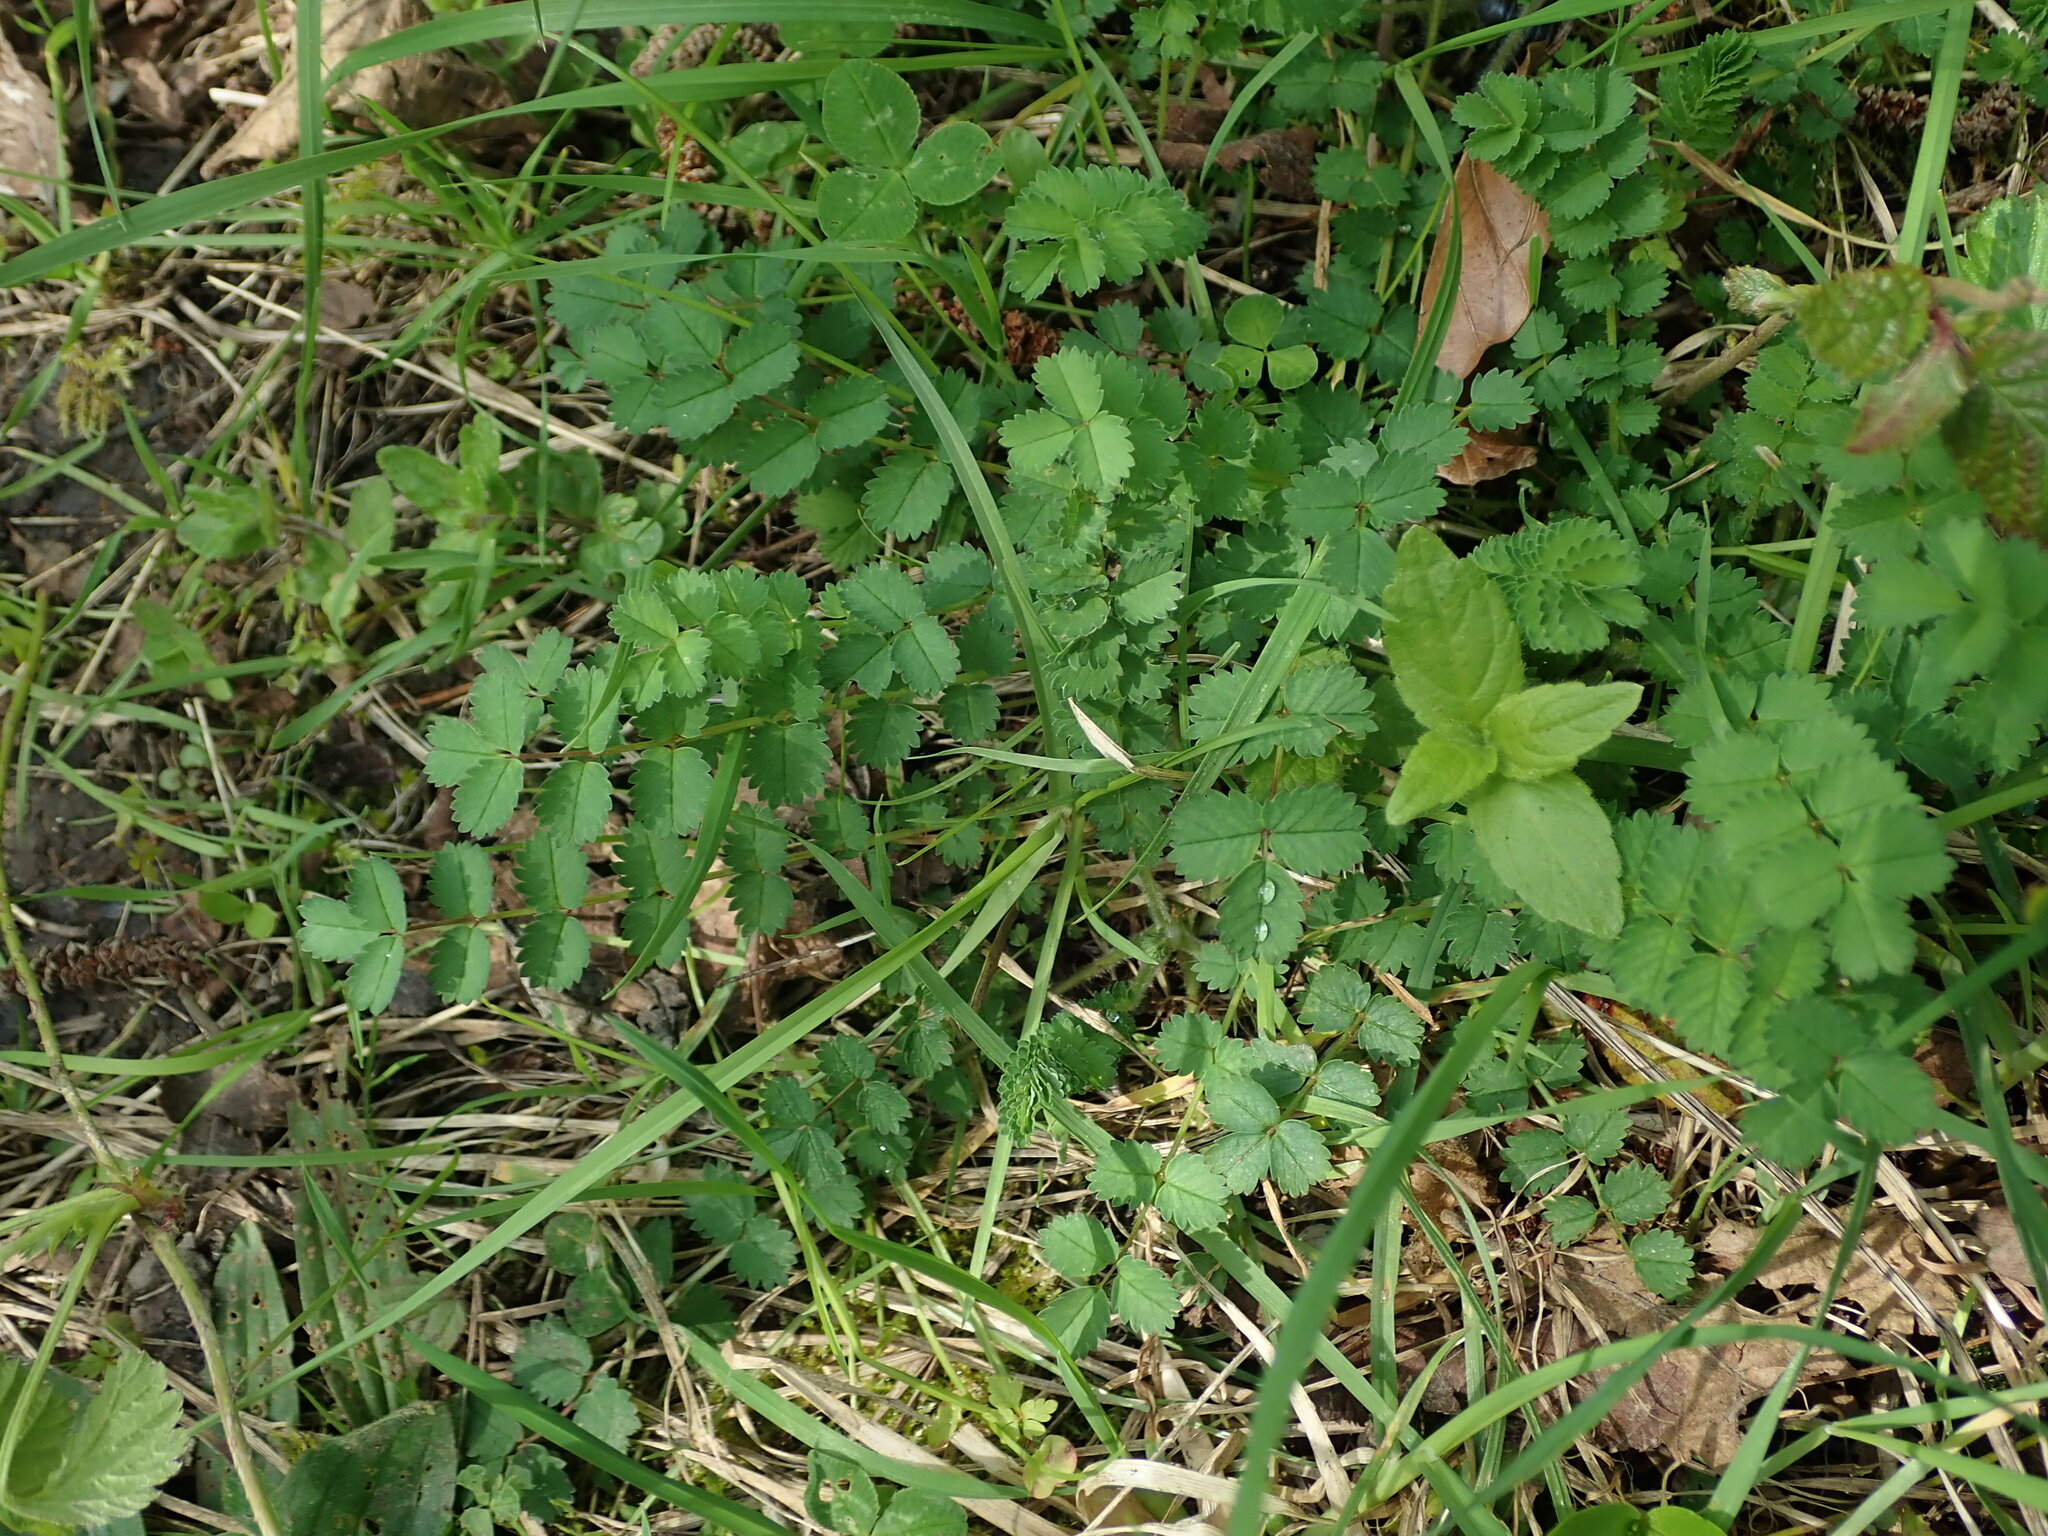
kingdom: Plantae
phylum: Tracheophyta
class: Magnoliopsida
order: Rosales
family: Rosaceae
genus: Poterium
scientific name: Poterium sanguisorba
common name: Salad burnet
